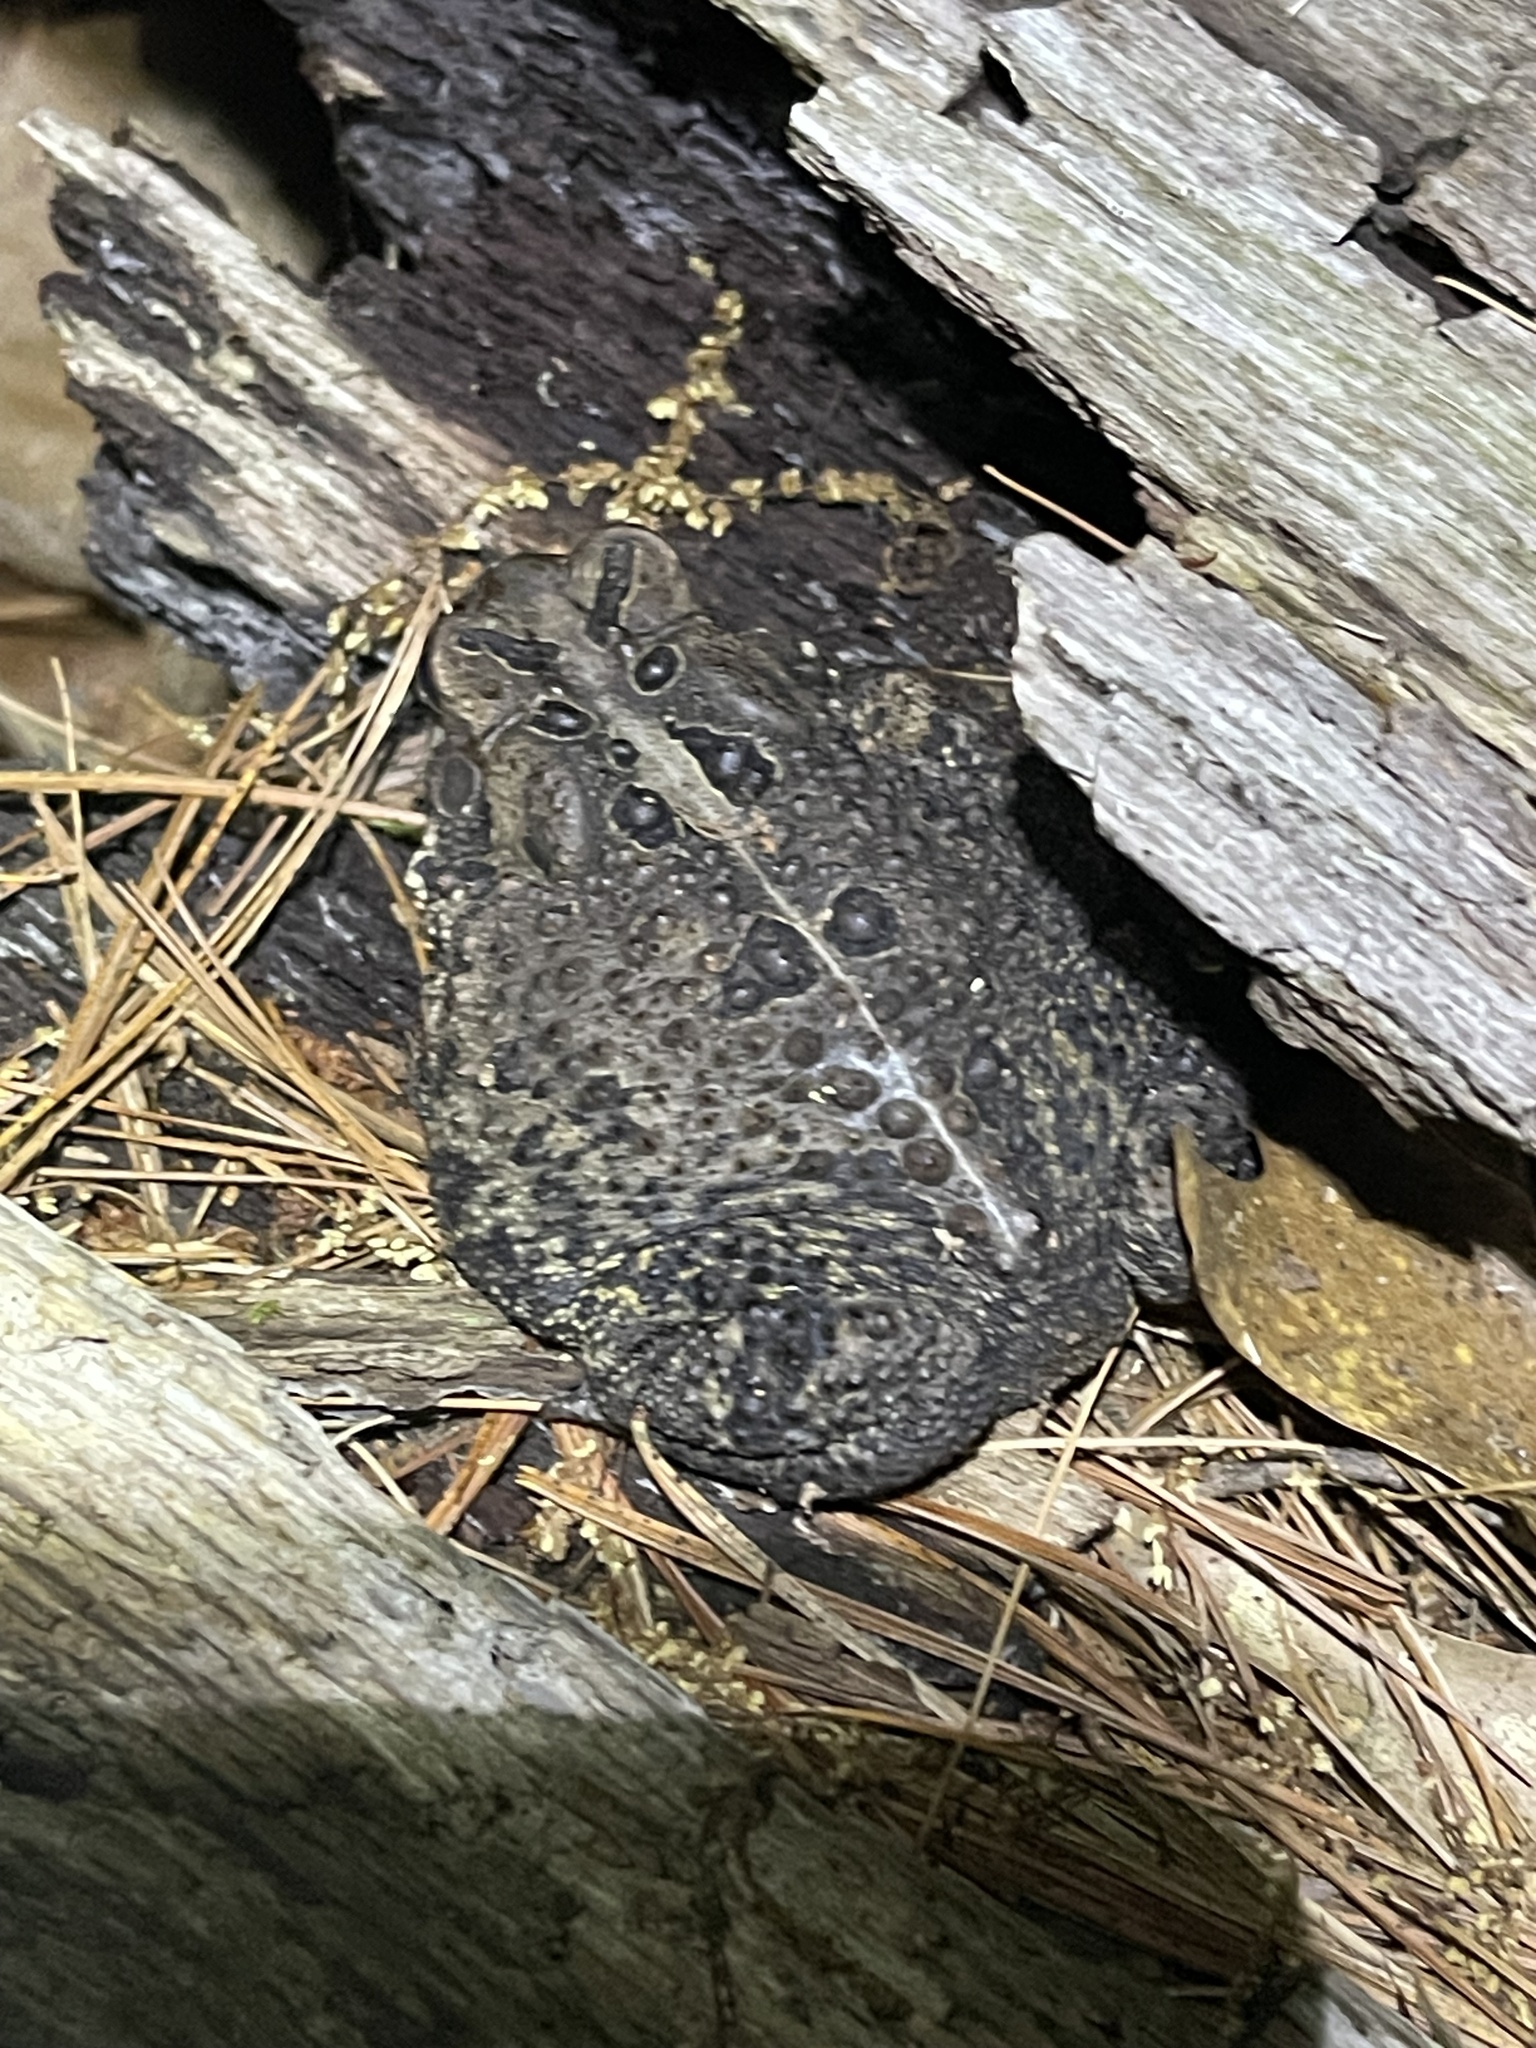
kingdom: Animalia
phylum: Chordata
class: Amphibia
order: Anura
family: Bufonidae
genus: Anaxyrus
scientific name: Anaxyrus americanus
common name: American toad
